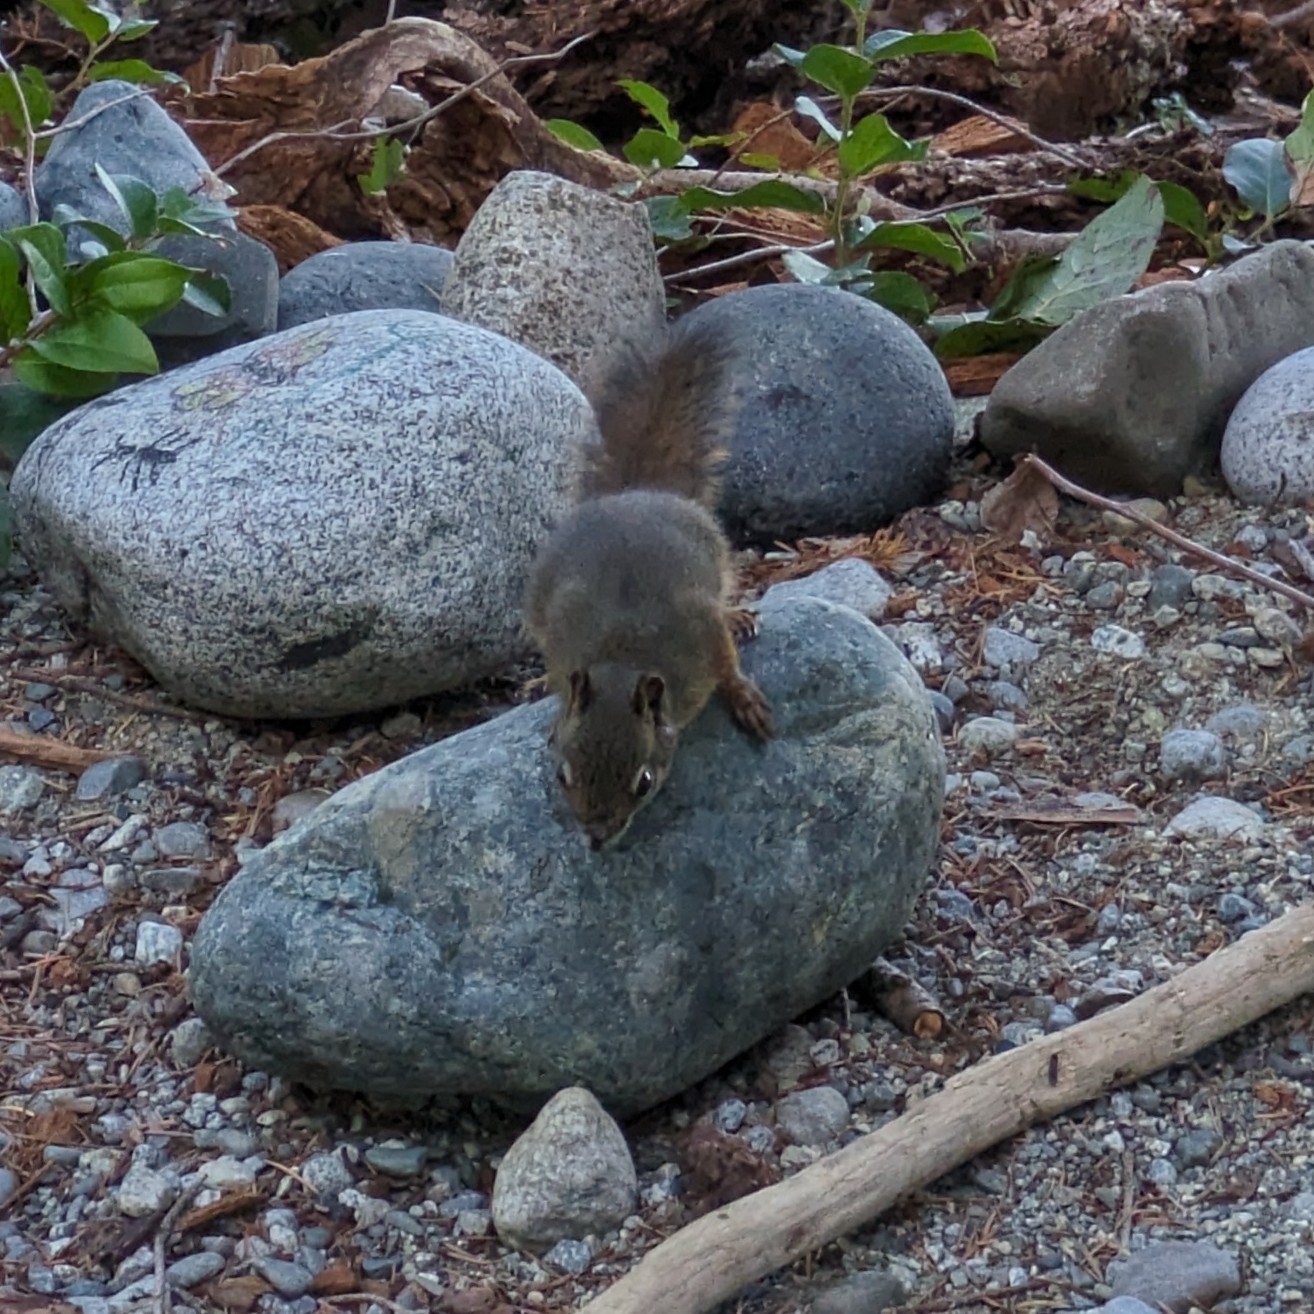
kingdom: Animalia
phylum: Chordata
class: Mammalia
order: Rodentia
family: Sciuridae
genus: Tamiasciurus
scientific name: Tamiasciurus hudsonicus
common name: Red squirrel
